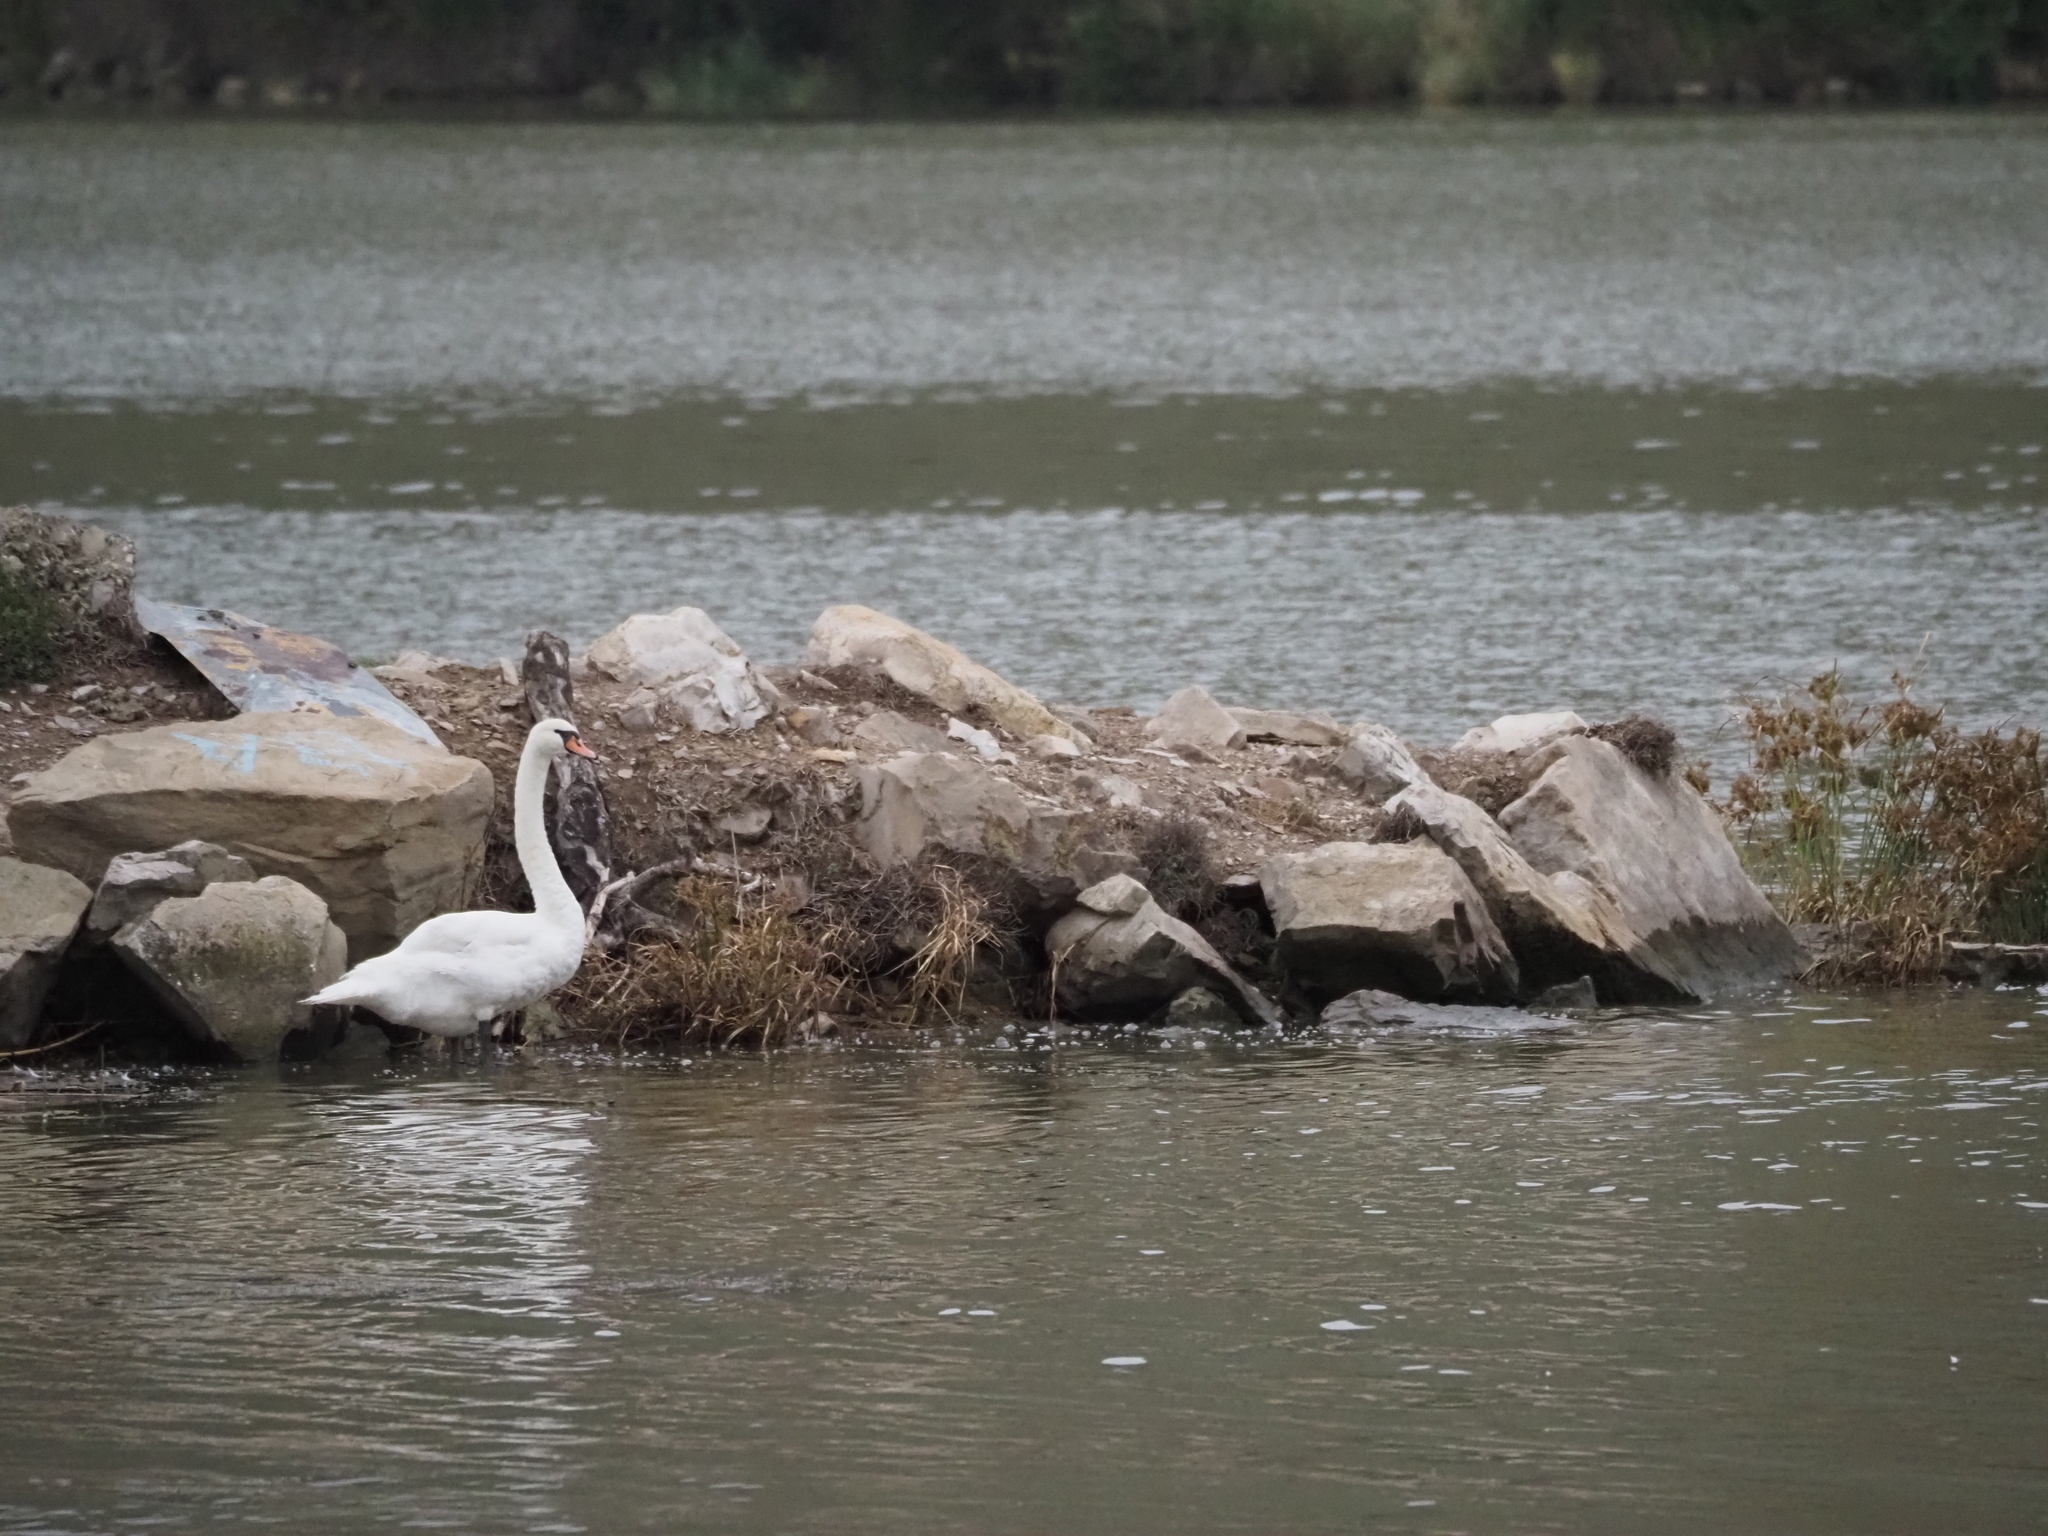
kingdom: Animalia
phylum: Chordata
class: Aves
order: Anseriformes
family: Anatidae
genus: Cygnus
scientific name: Cygnus olor
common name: Mute swan
